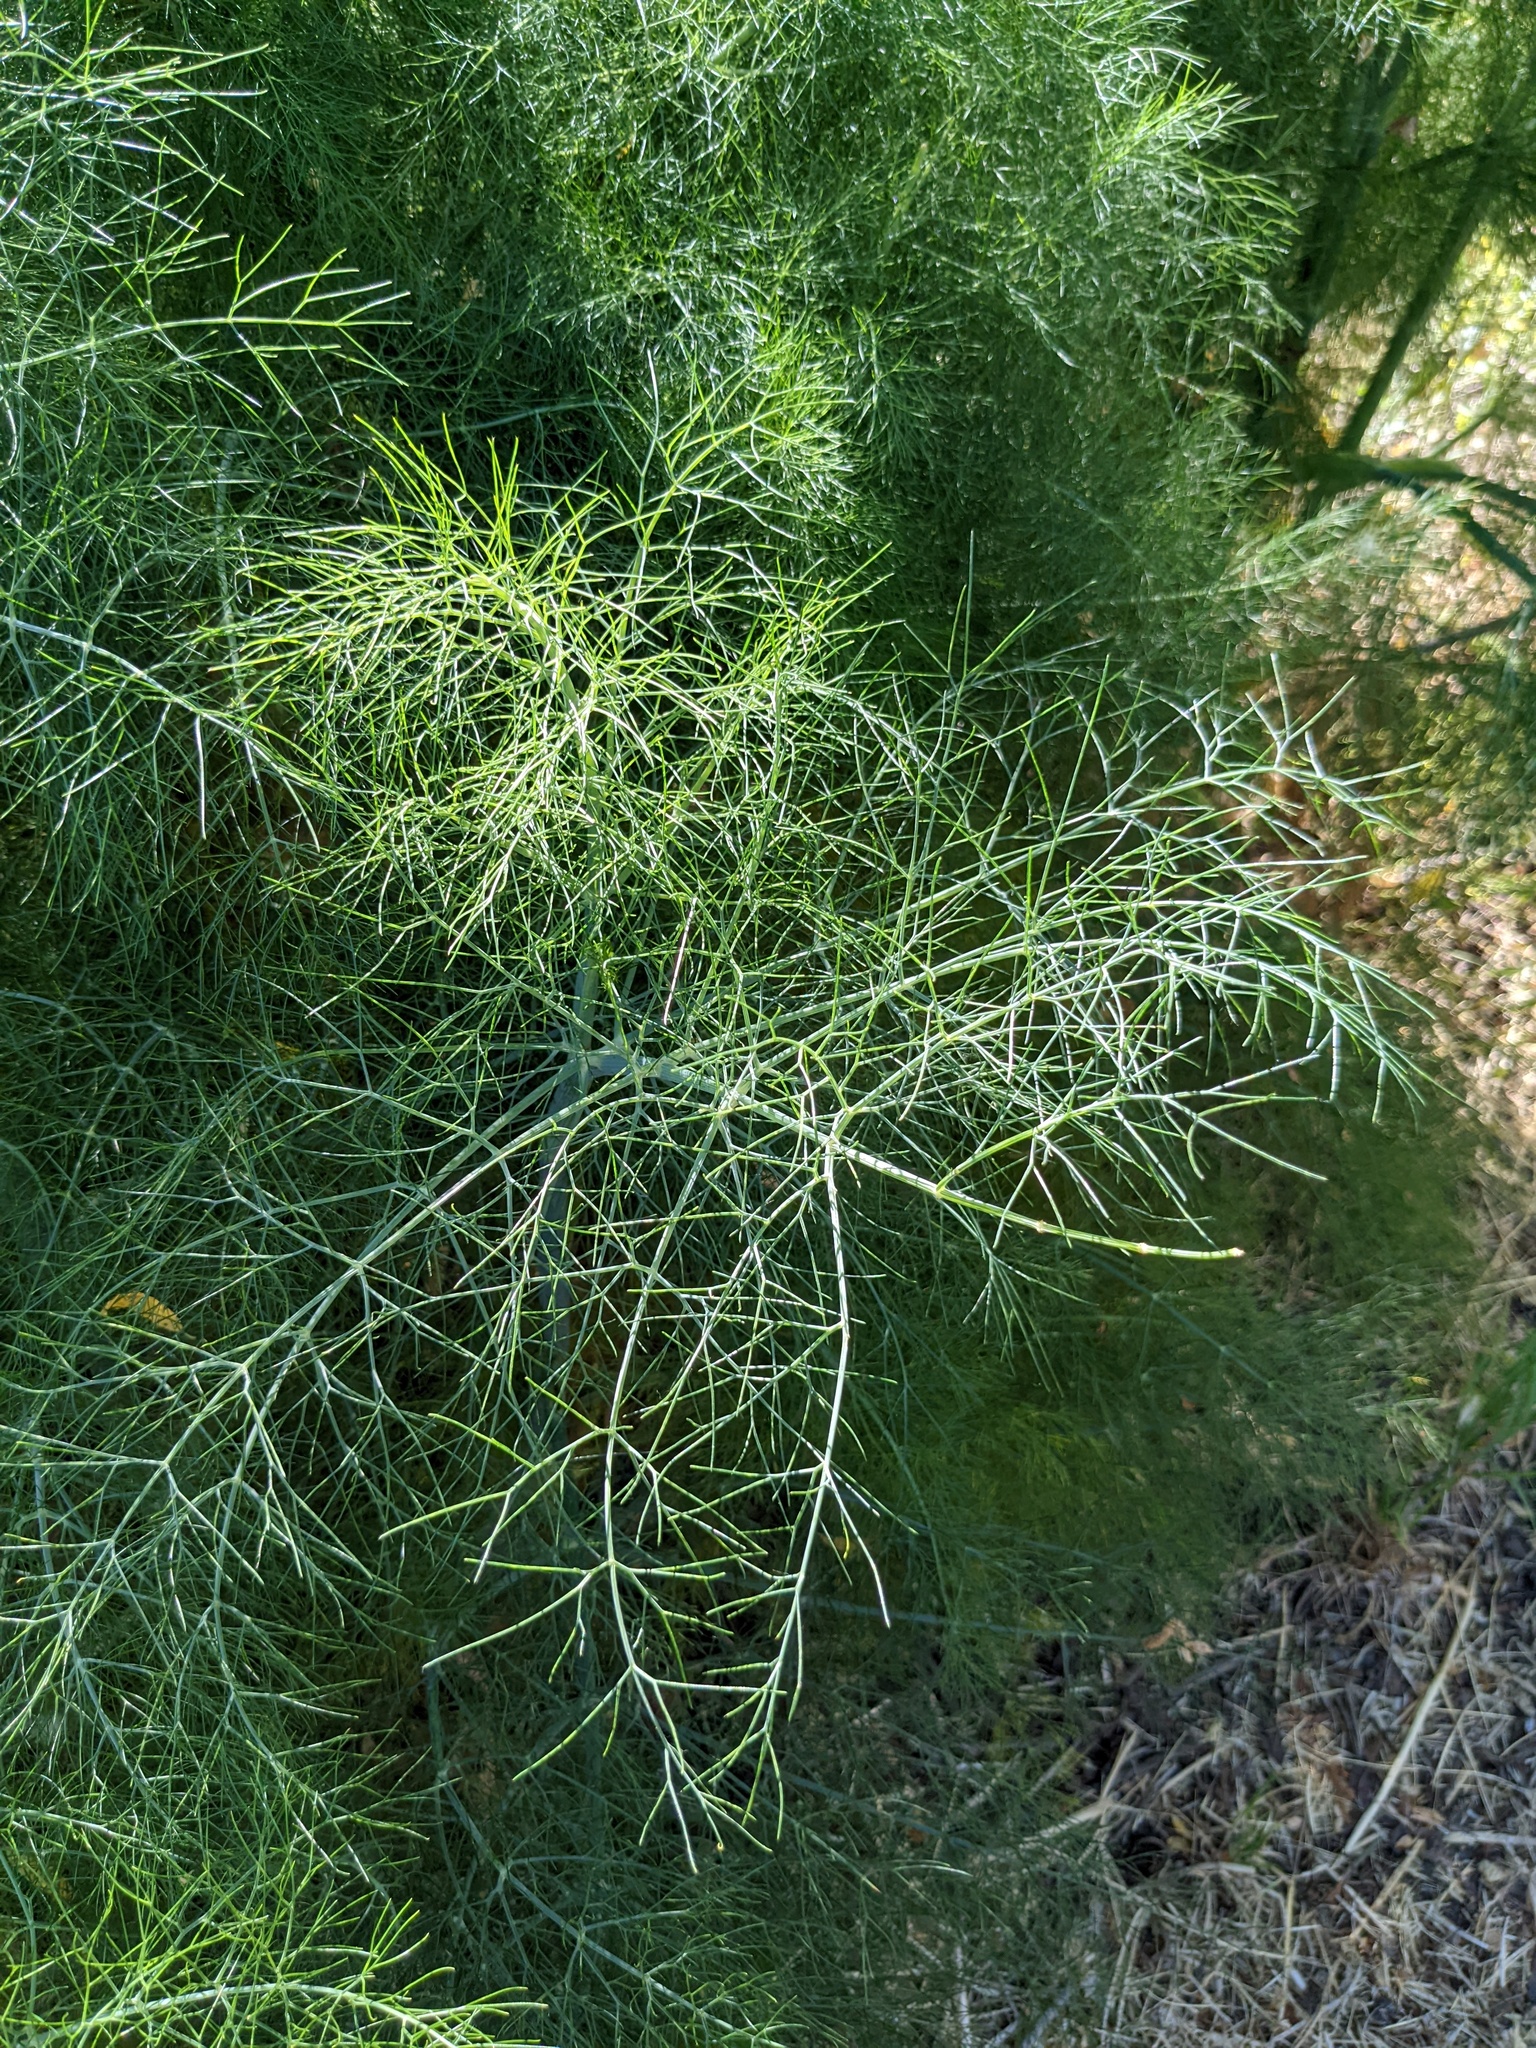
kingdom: Plantae
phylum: Tracheophyta
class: Magnoliopsida
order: Apiales
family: Apiaceae
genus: Foeniculum
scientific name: Foeniculum vulgare
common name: Fennel
